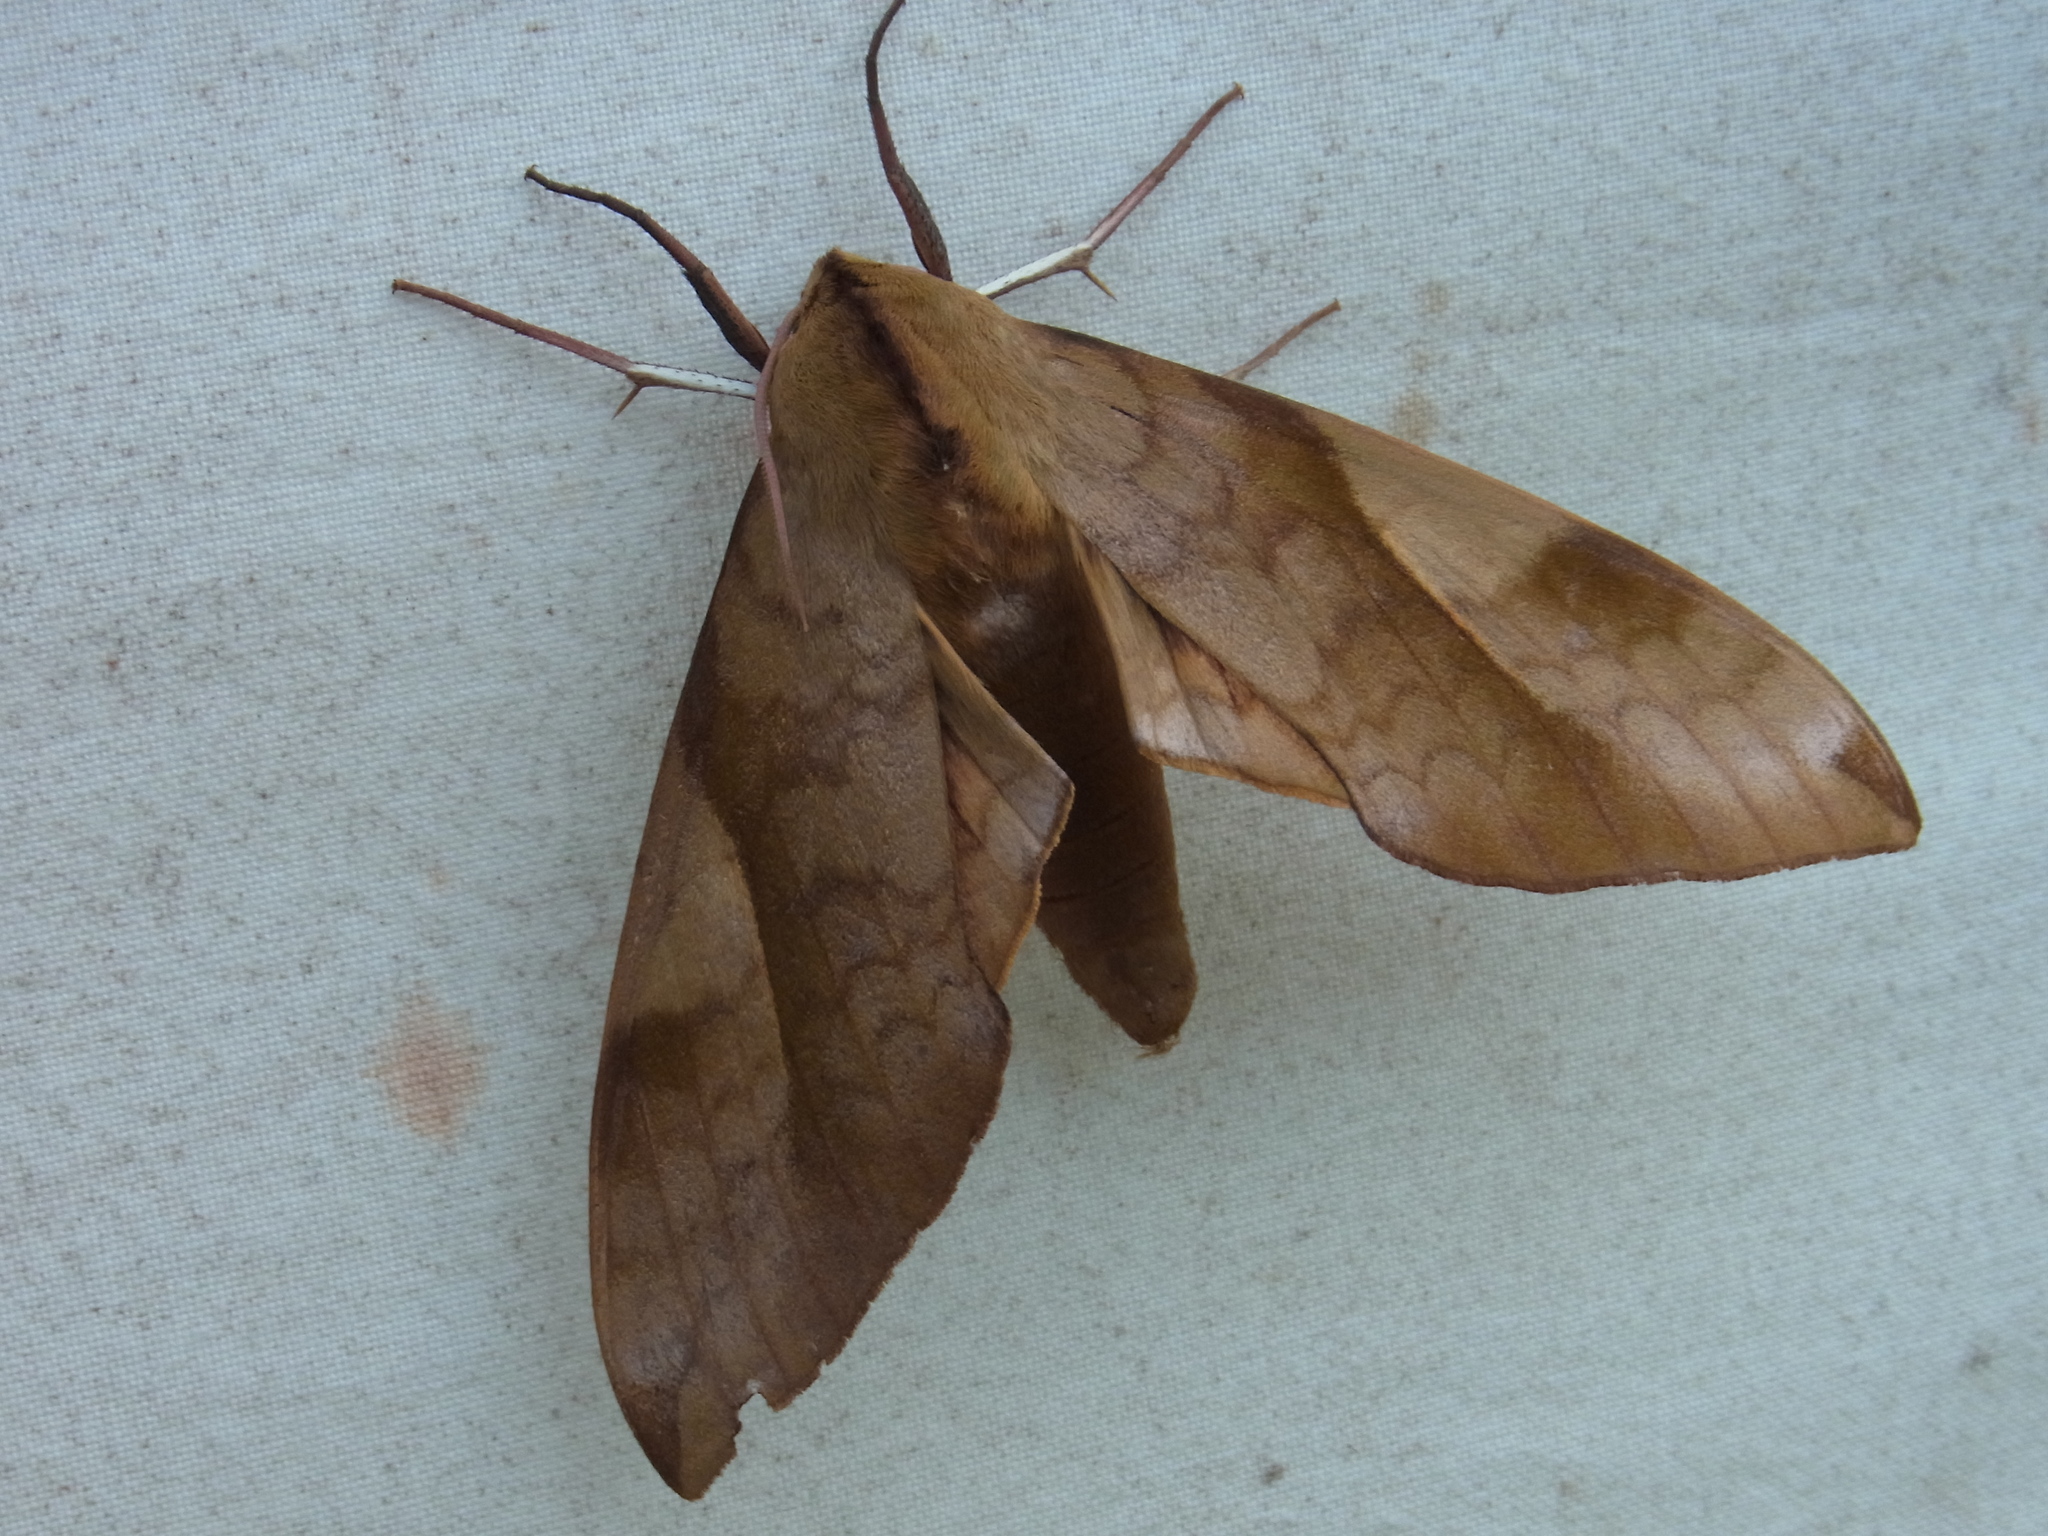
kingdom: Animalia
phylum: Arthropoda
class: Insecta
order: Lepidoptera
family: Sphingidae
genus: Clanis
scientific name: Clanis bilineata
